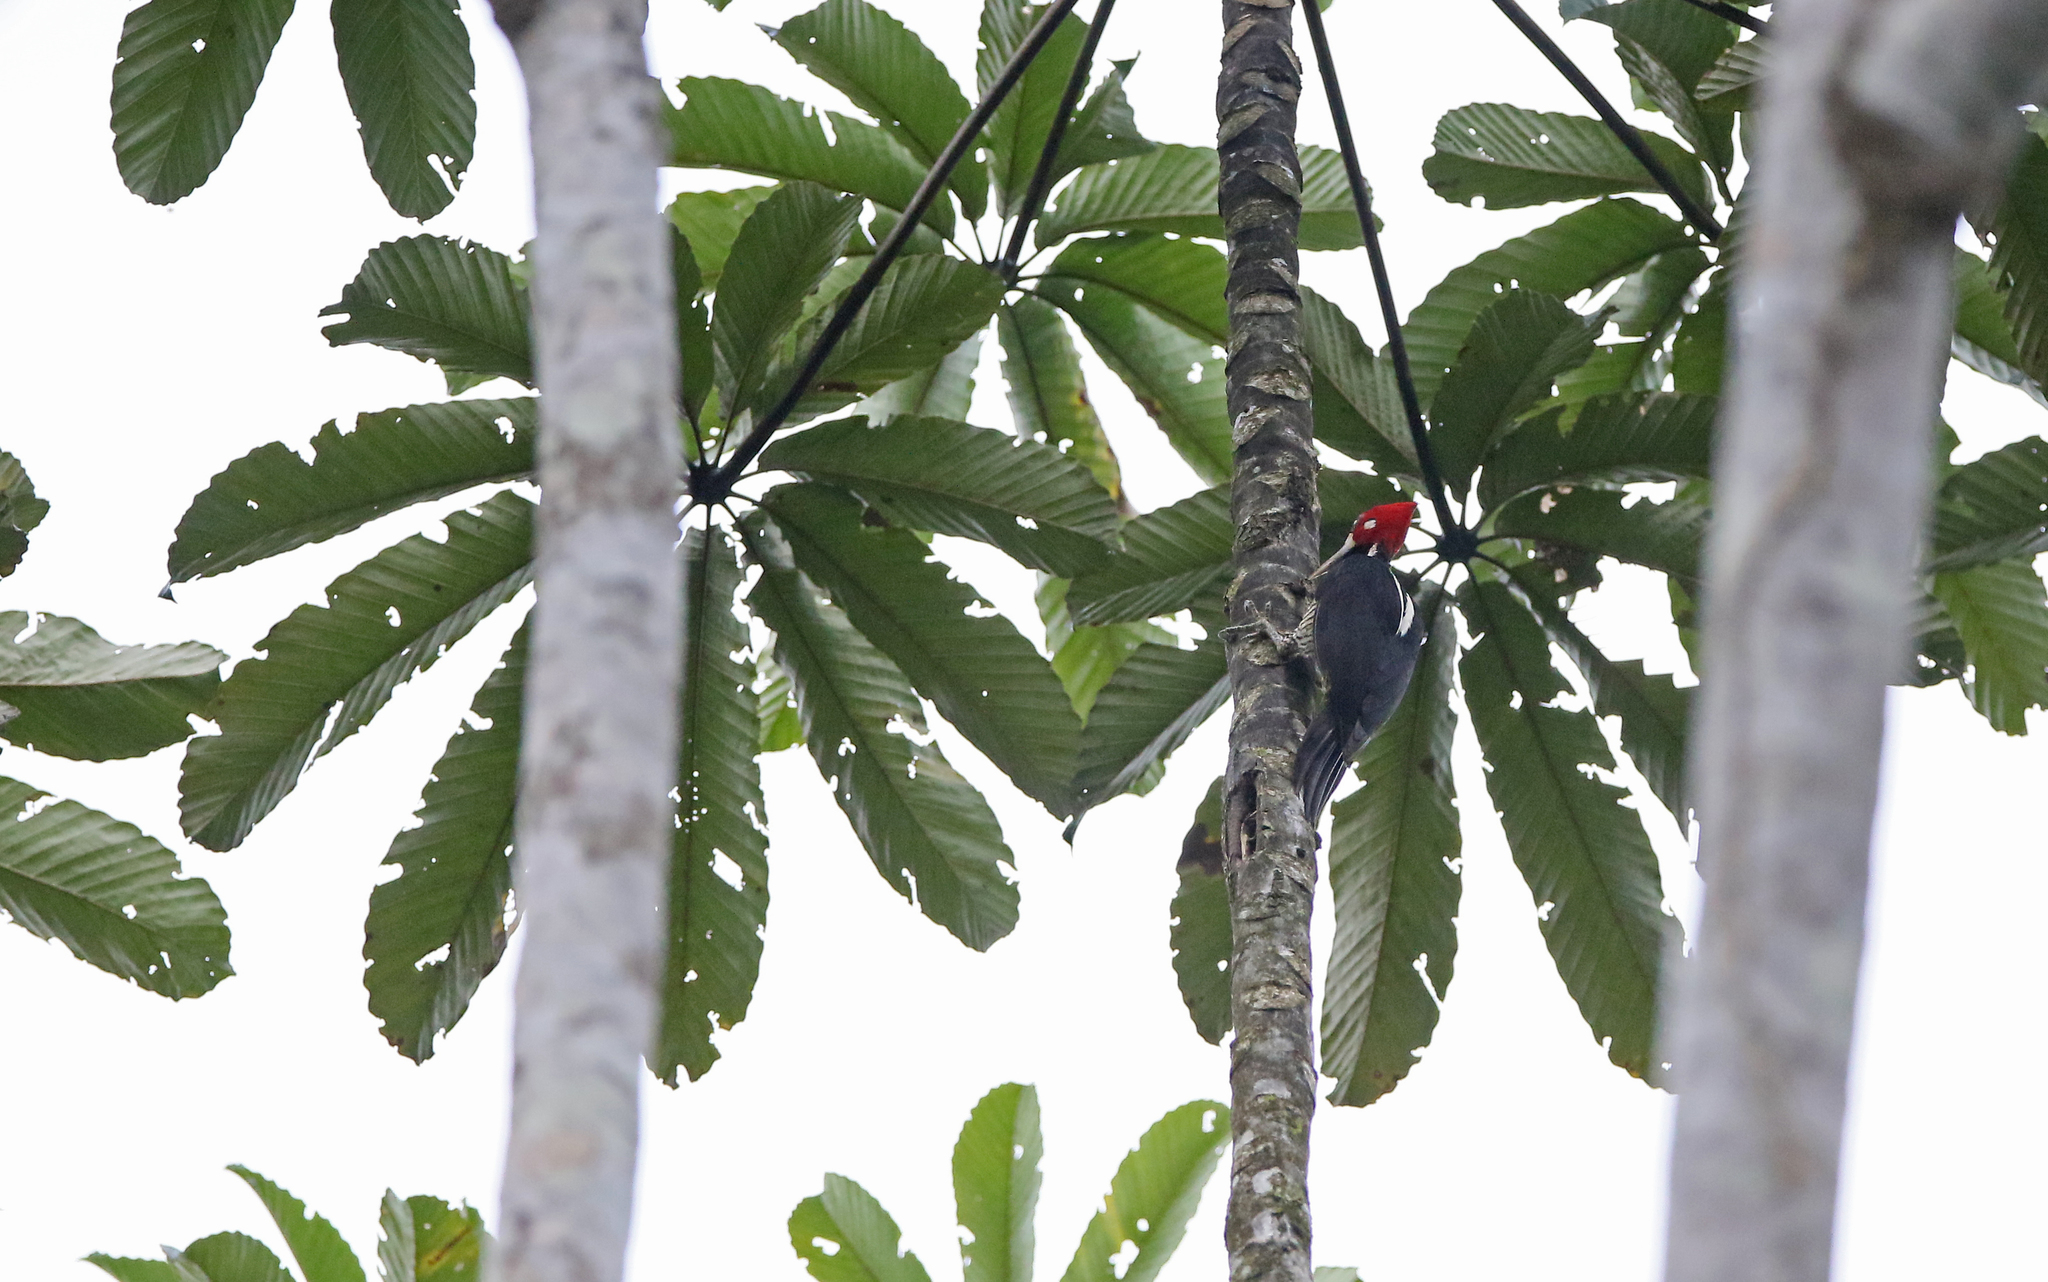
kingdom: Animalia
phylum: Chordata
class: Aves
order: Piciformes
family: Picidae
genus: Campephilus
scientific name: Campephilus melanoleucos
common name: Crimson-crested woodpecker
